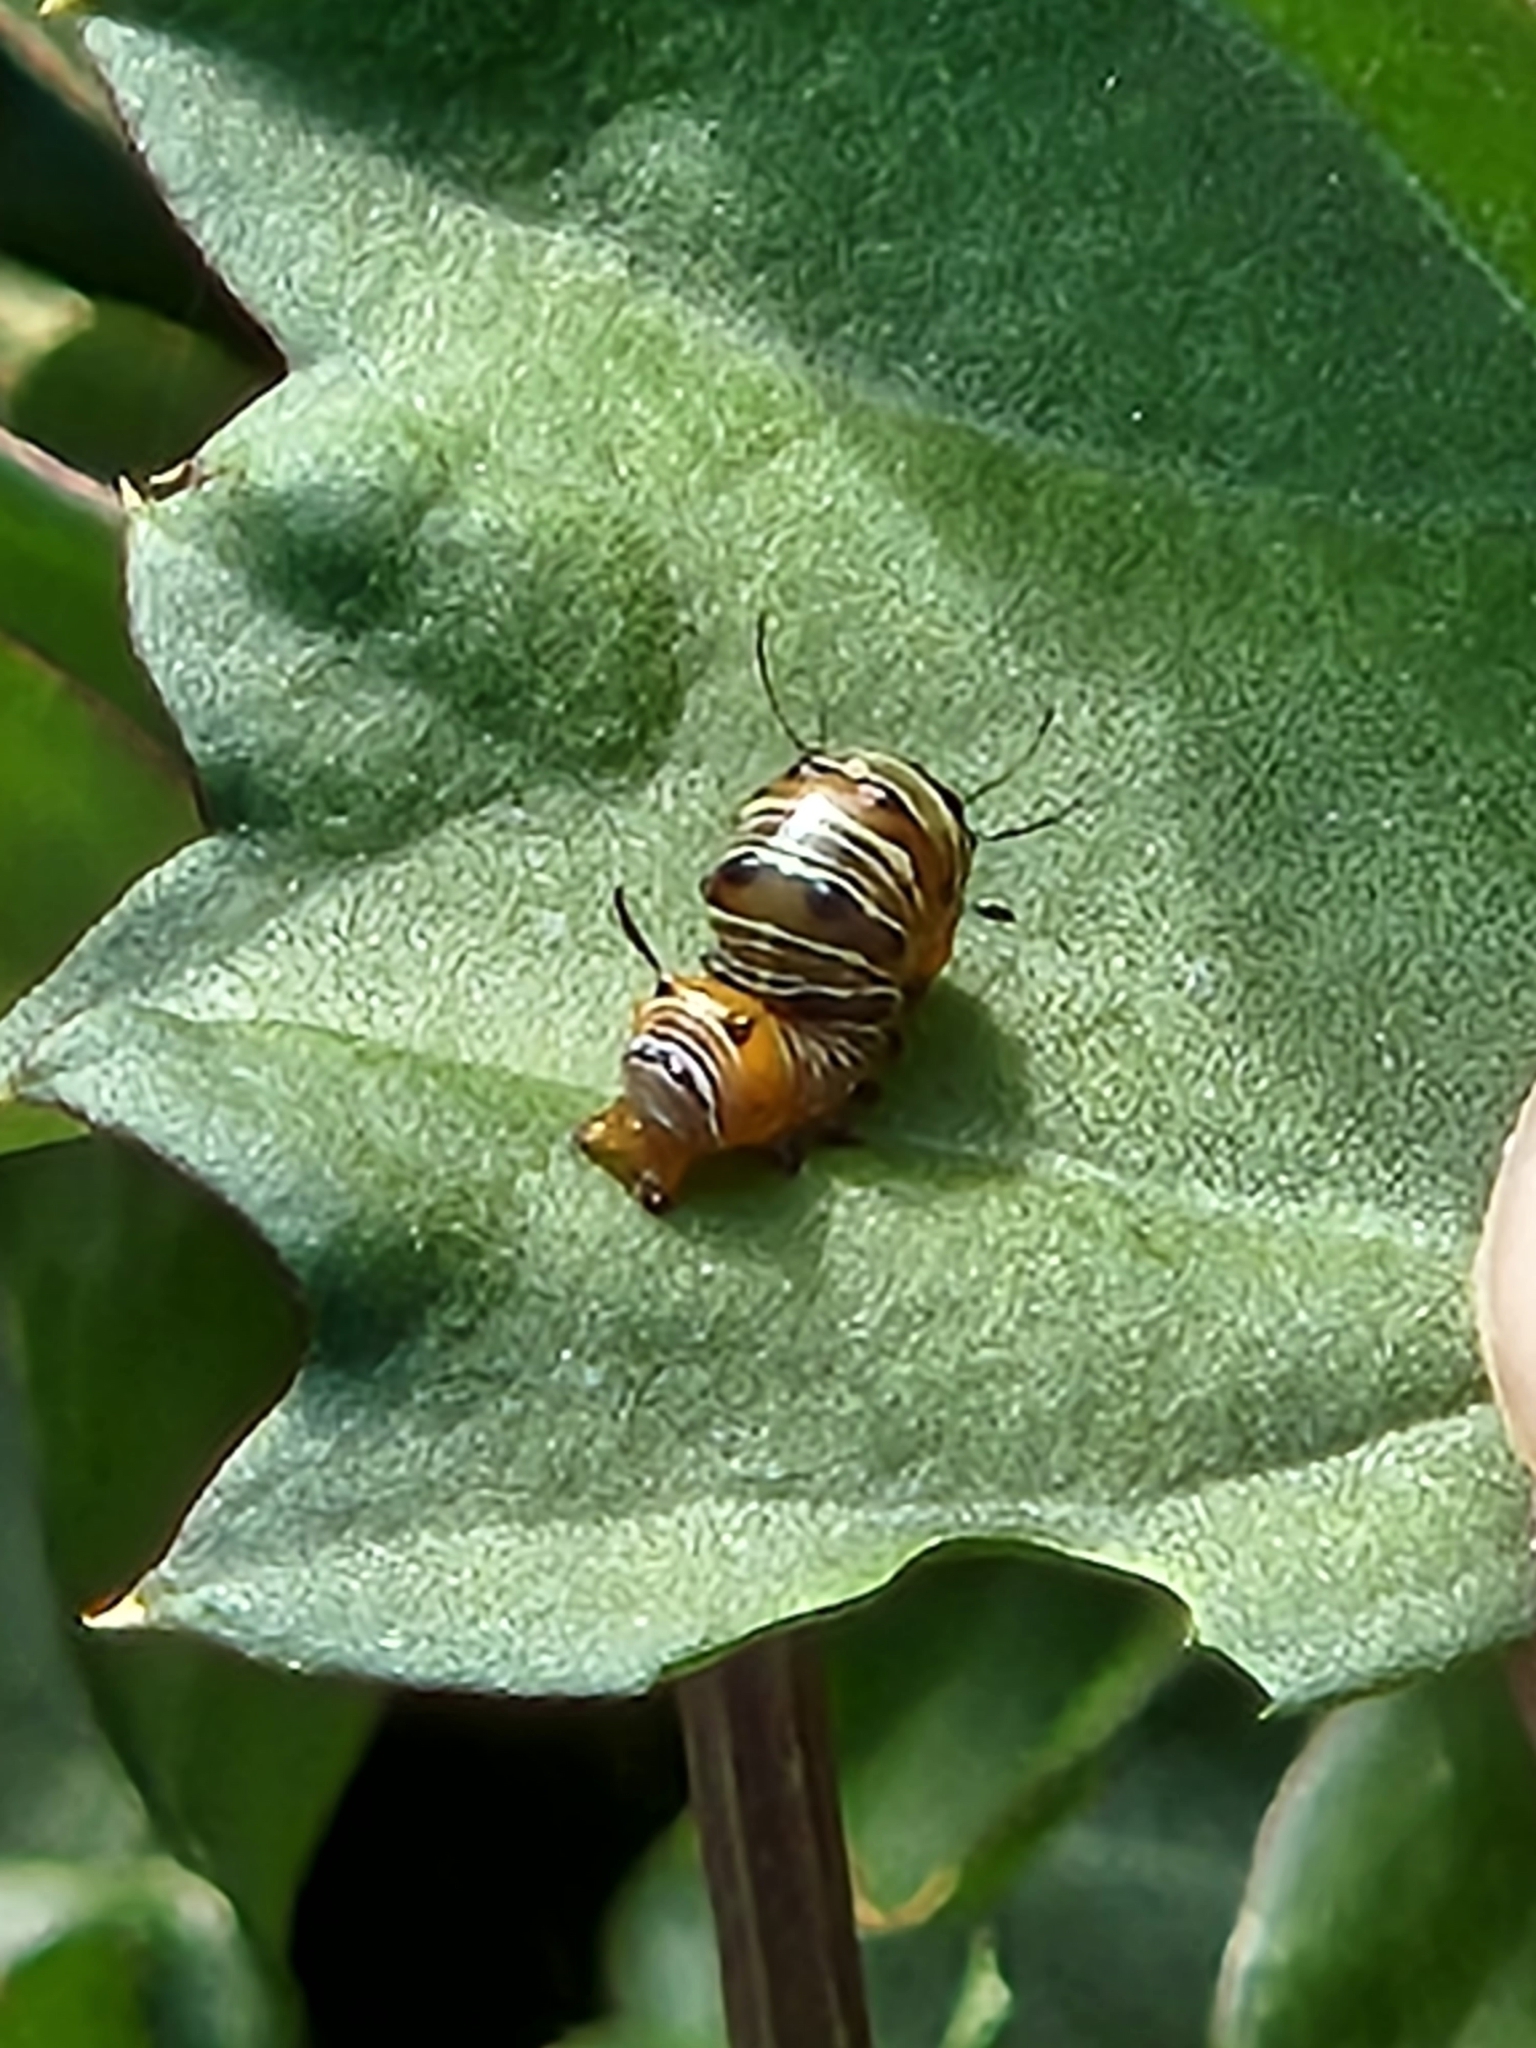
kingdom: Animalia
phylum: Arthropoda
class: Insecta
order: Lepidoptera
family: Noctuidae
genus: Xerociris
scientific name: Xerociris wilsonii
